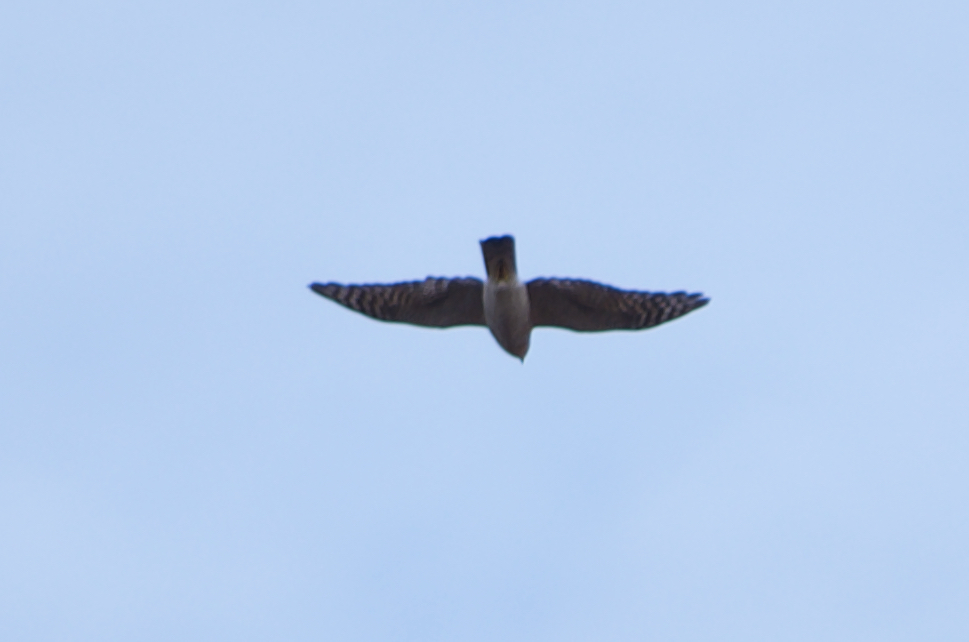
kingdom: Animalia
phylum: Chordata
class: Aves
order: Accipitriformes
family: Accipitridae
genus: Accipiter
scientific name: Accipiter nisus
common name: Eurasian sparrowhawk
